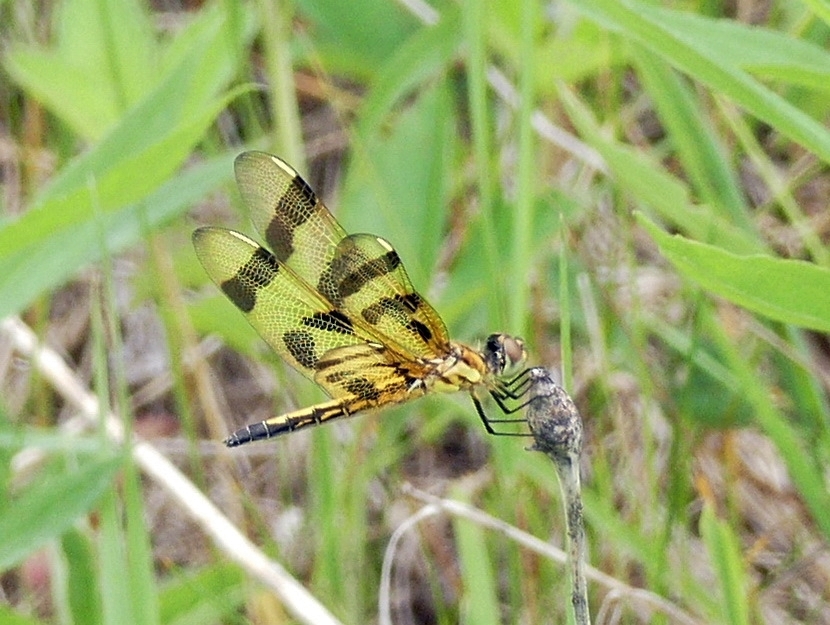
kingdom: Animalia
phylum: Arthropoda
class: Insecta
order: Odonata
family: Libellulidae
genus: Celithemis
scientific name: Celithemis eponina
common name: Halloween pennant
